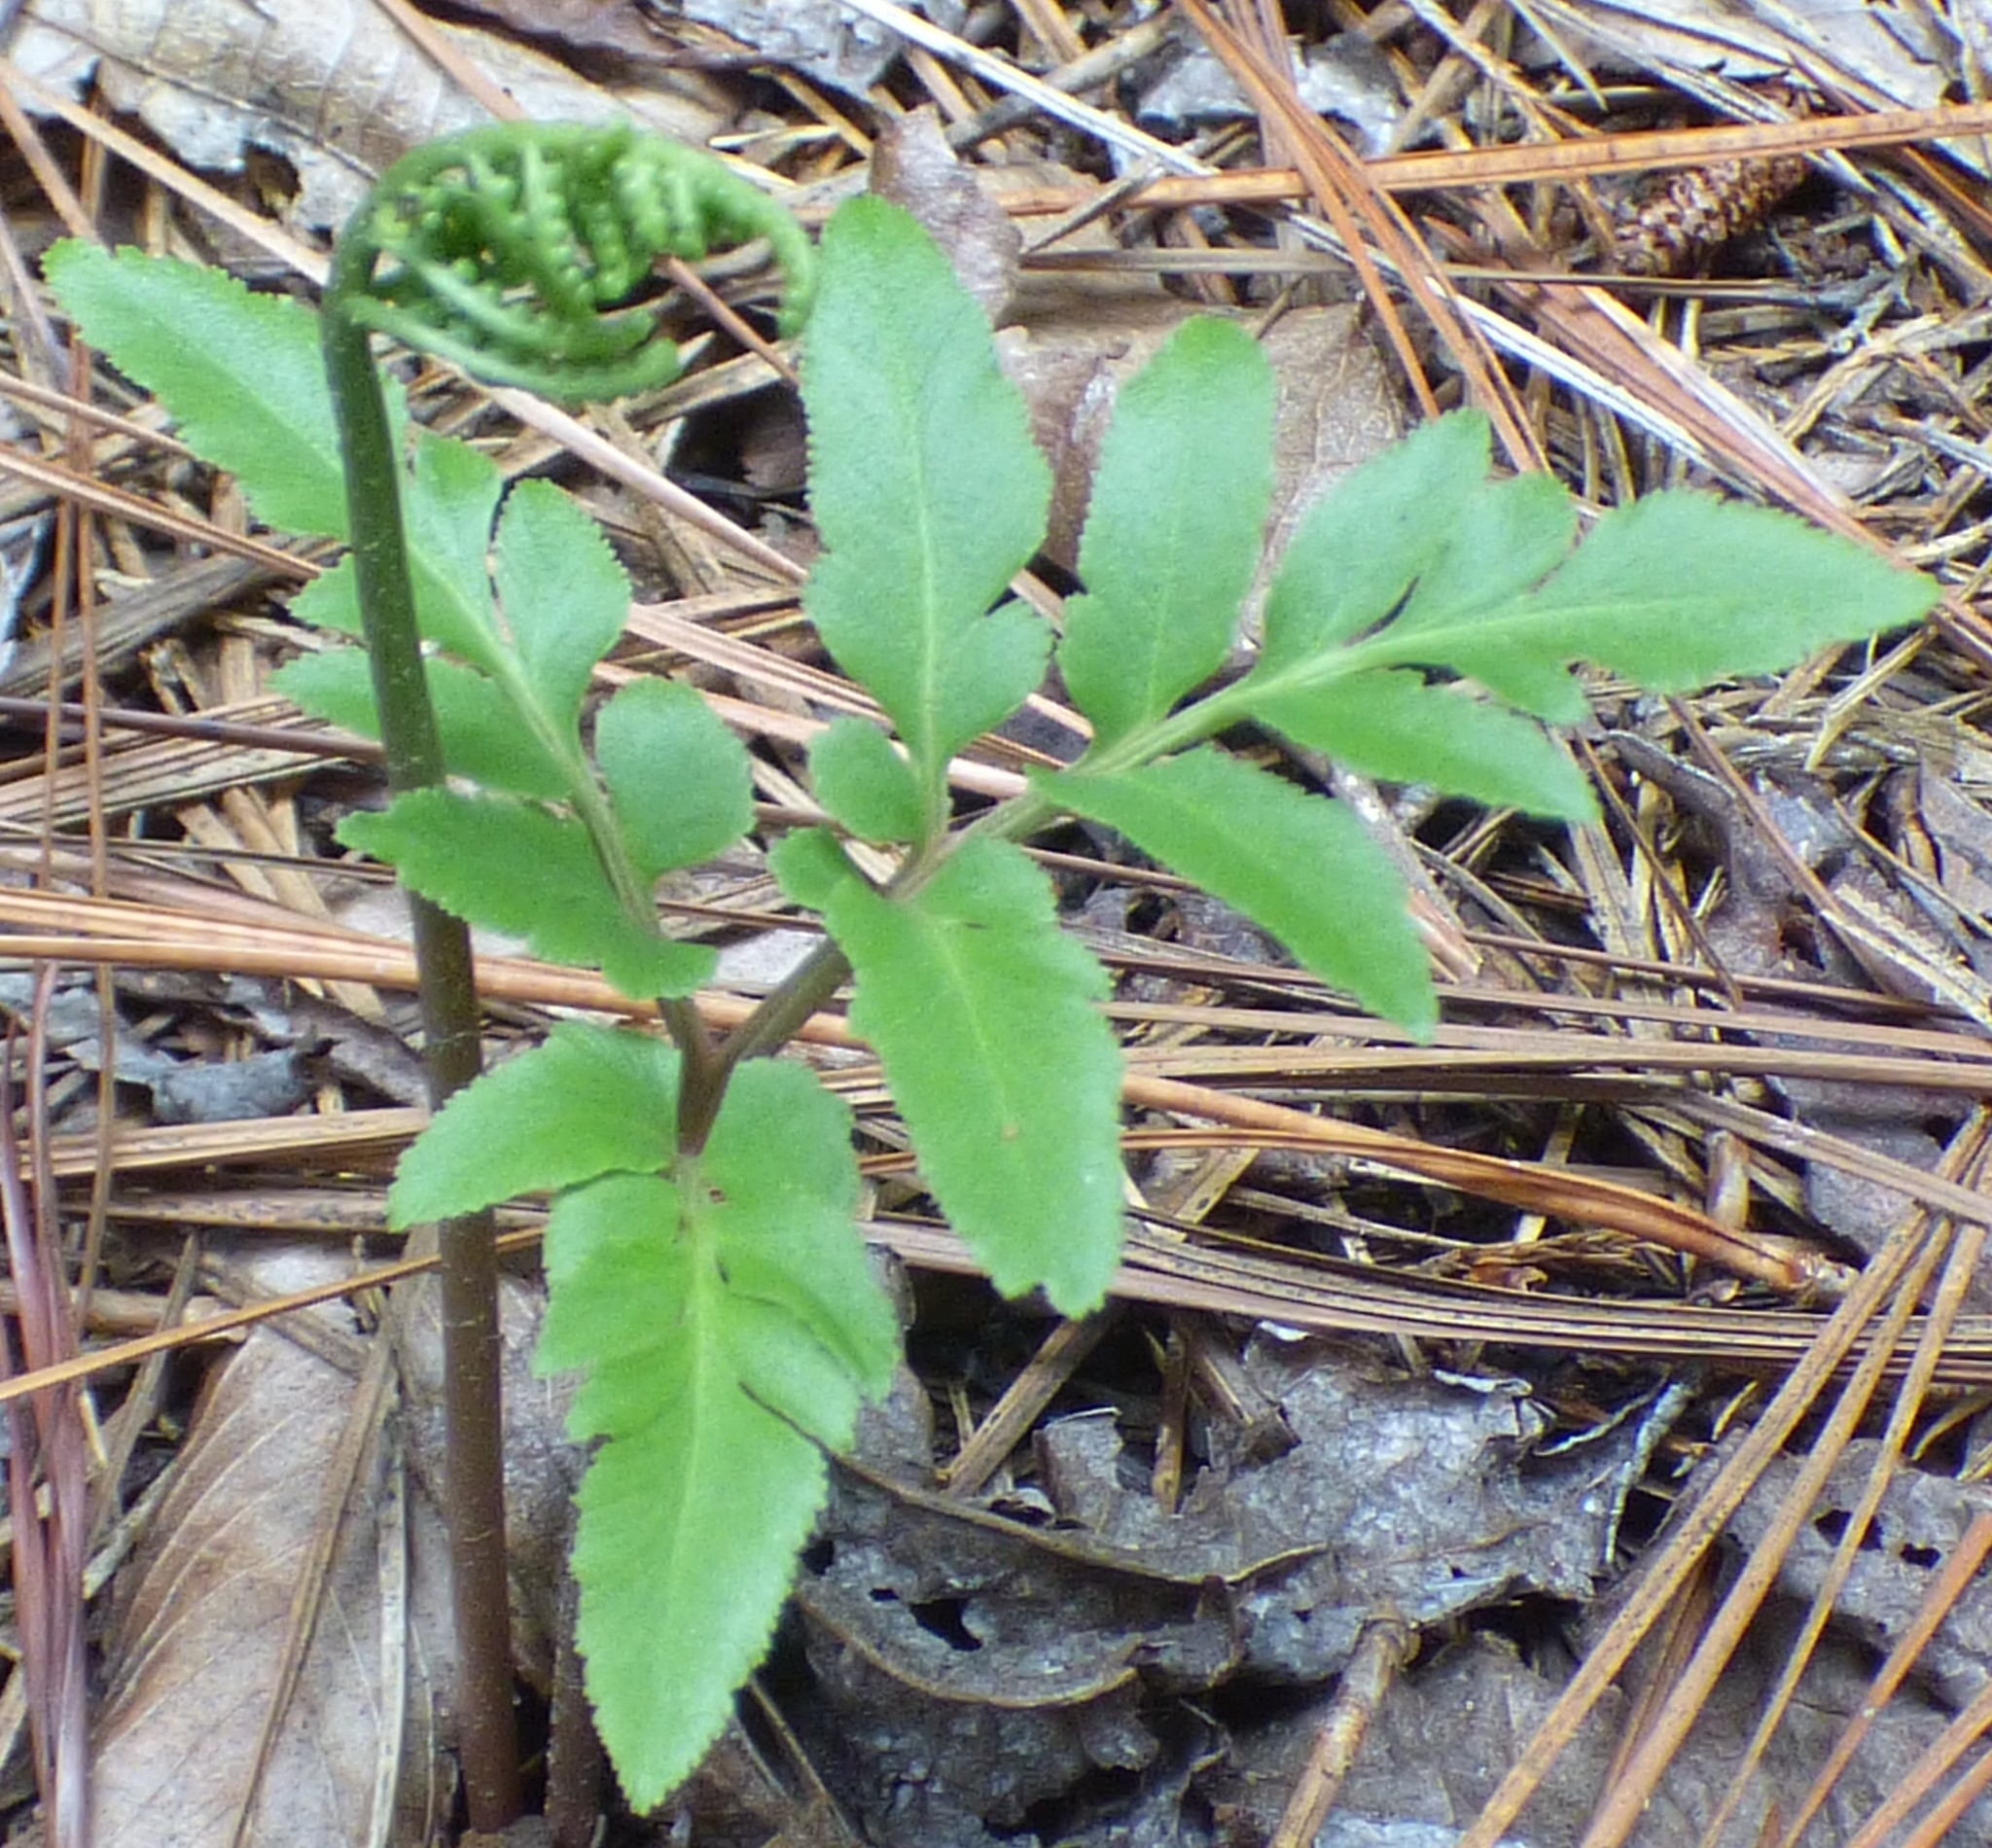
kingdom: Plantae
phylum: Tracheophyta
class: Polypodiopsida
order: Ophioglossales
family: Ophioglossaceae
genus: Sceptridium
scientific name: Sceptridium biternatum
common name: Sparse-lobed grapefern
